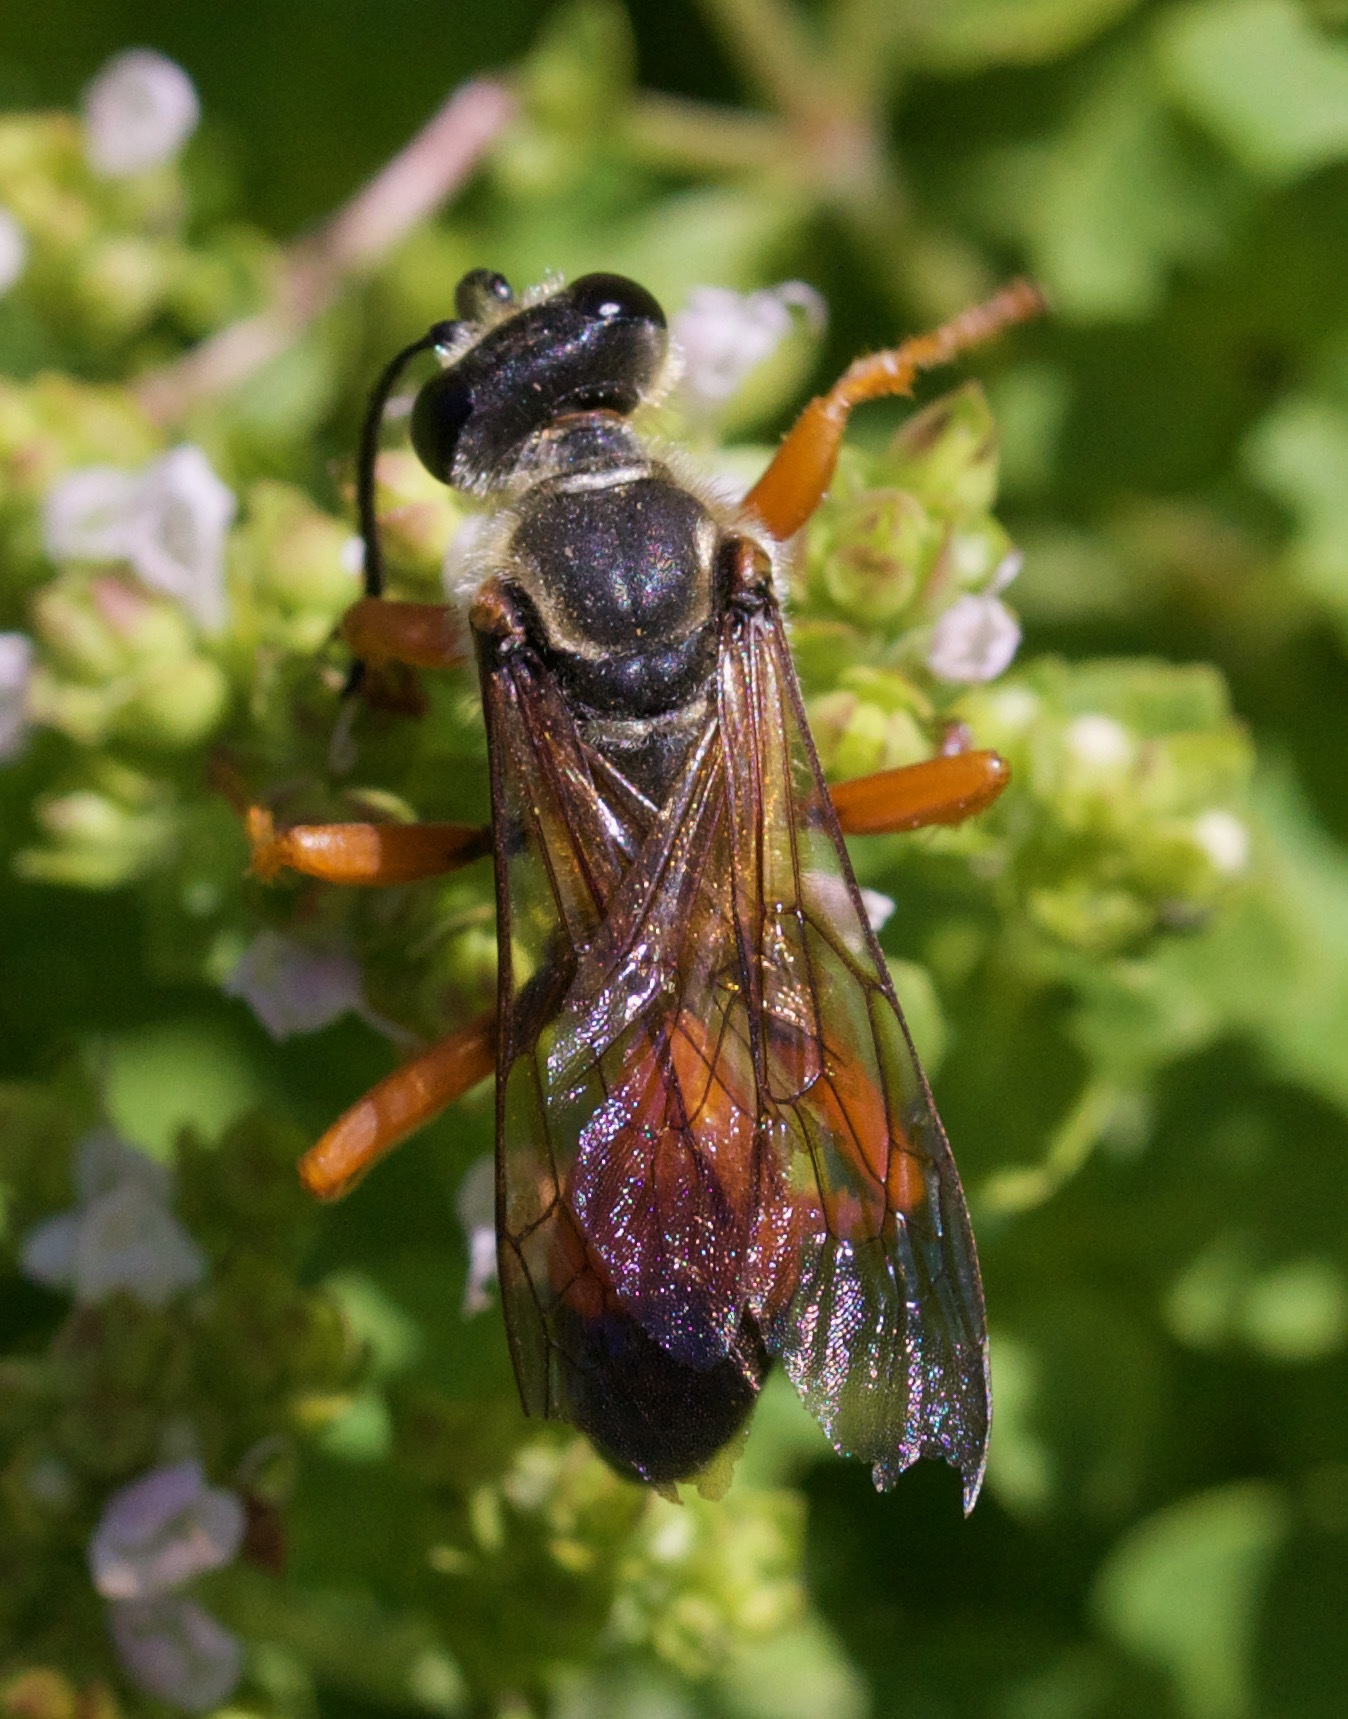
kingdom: Animalia
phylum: Arthropoda
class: Insecta
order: Hymenoptera
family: Sphecidae
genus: Sphex
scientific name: Sphex ichneumoneus
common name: Great golden digger wasp
